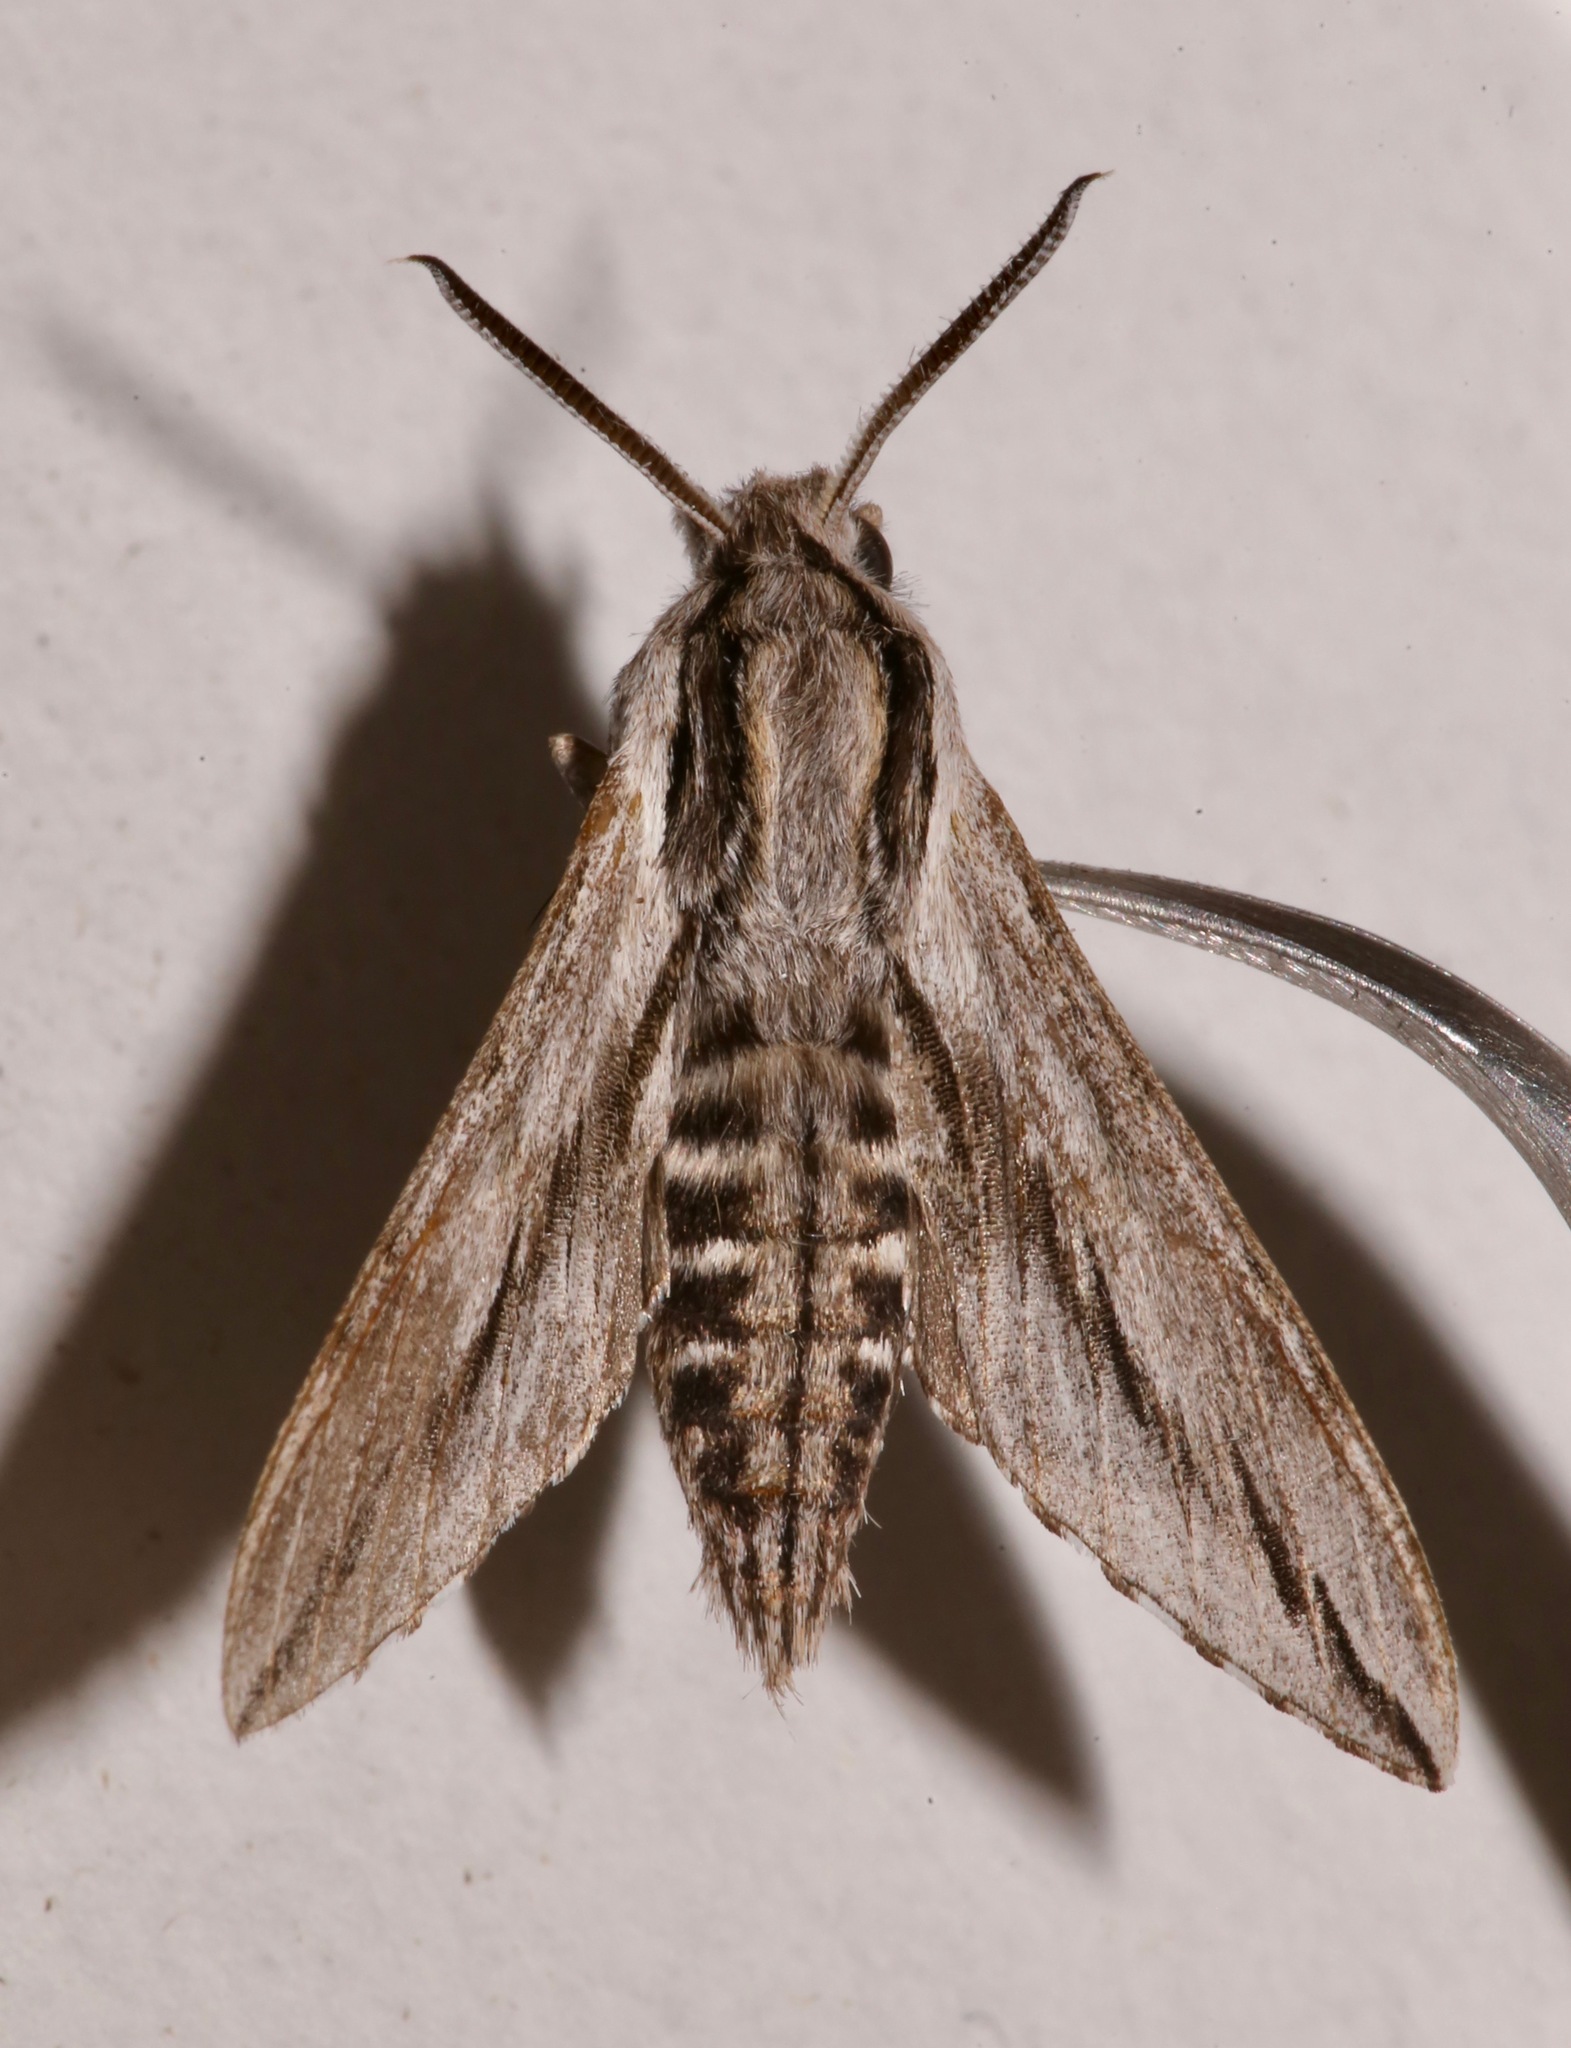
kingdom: Animalia
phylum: Arthropoda
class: Insecta
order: Lepidoptera
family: Sphingidae
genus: Sphinx
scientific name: Sphinx dollii
